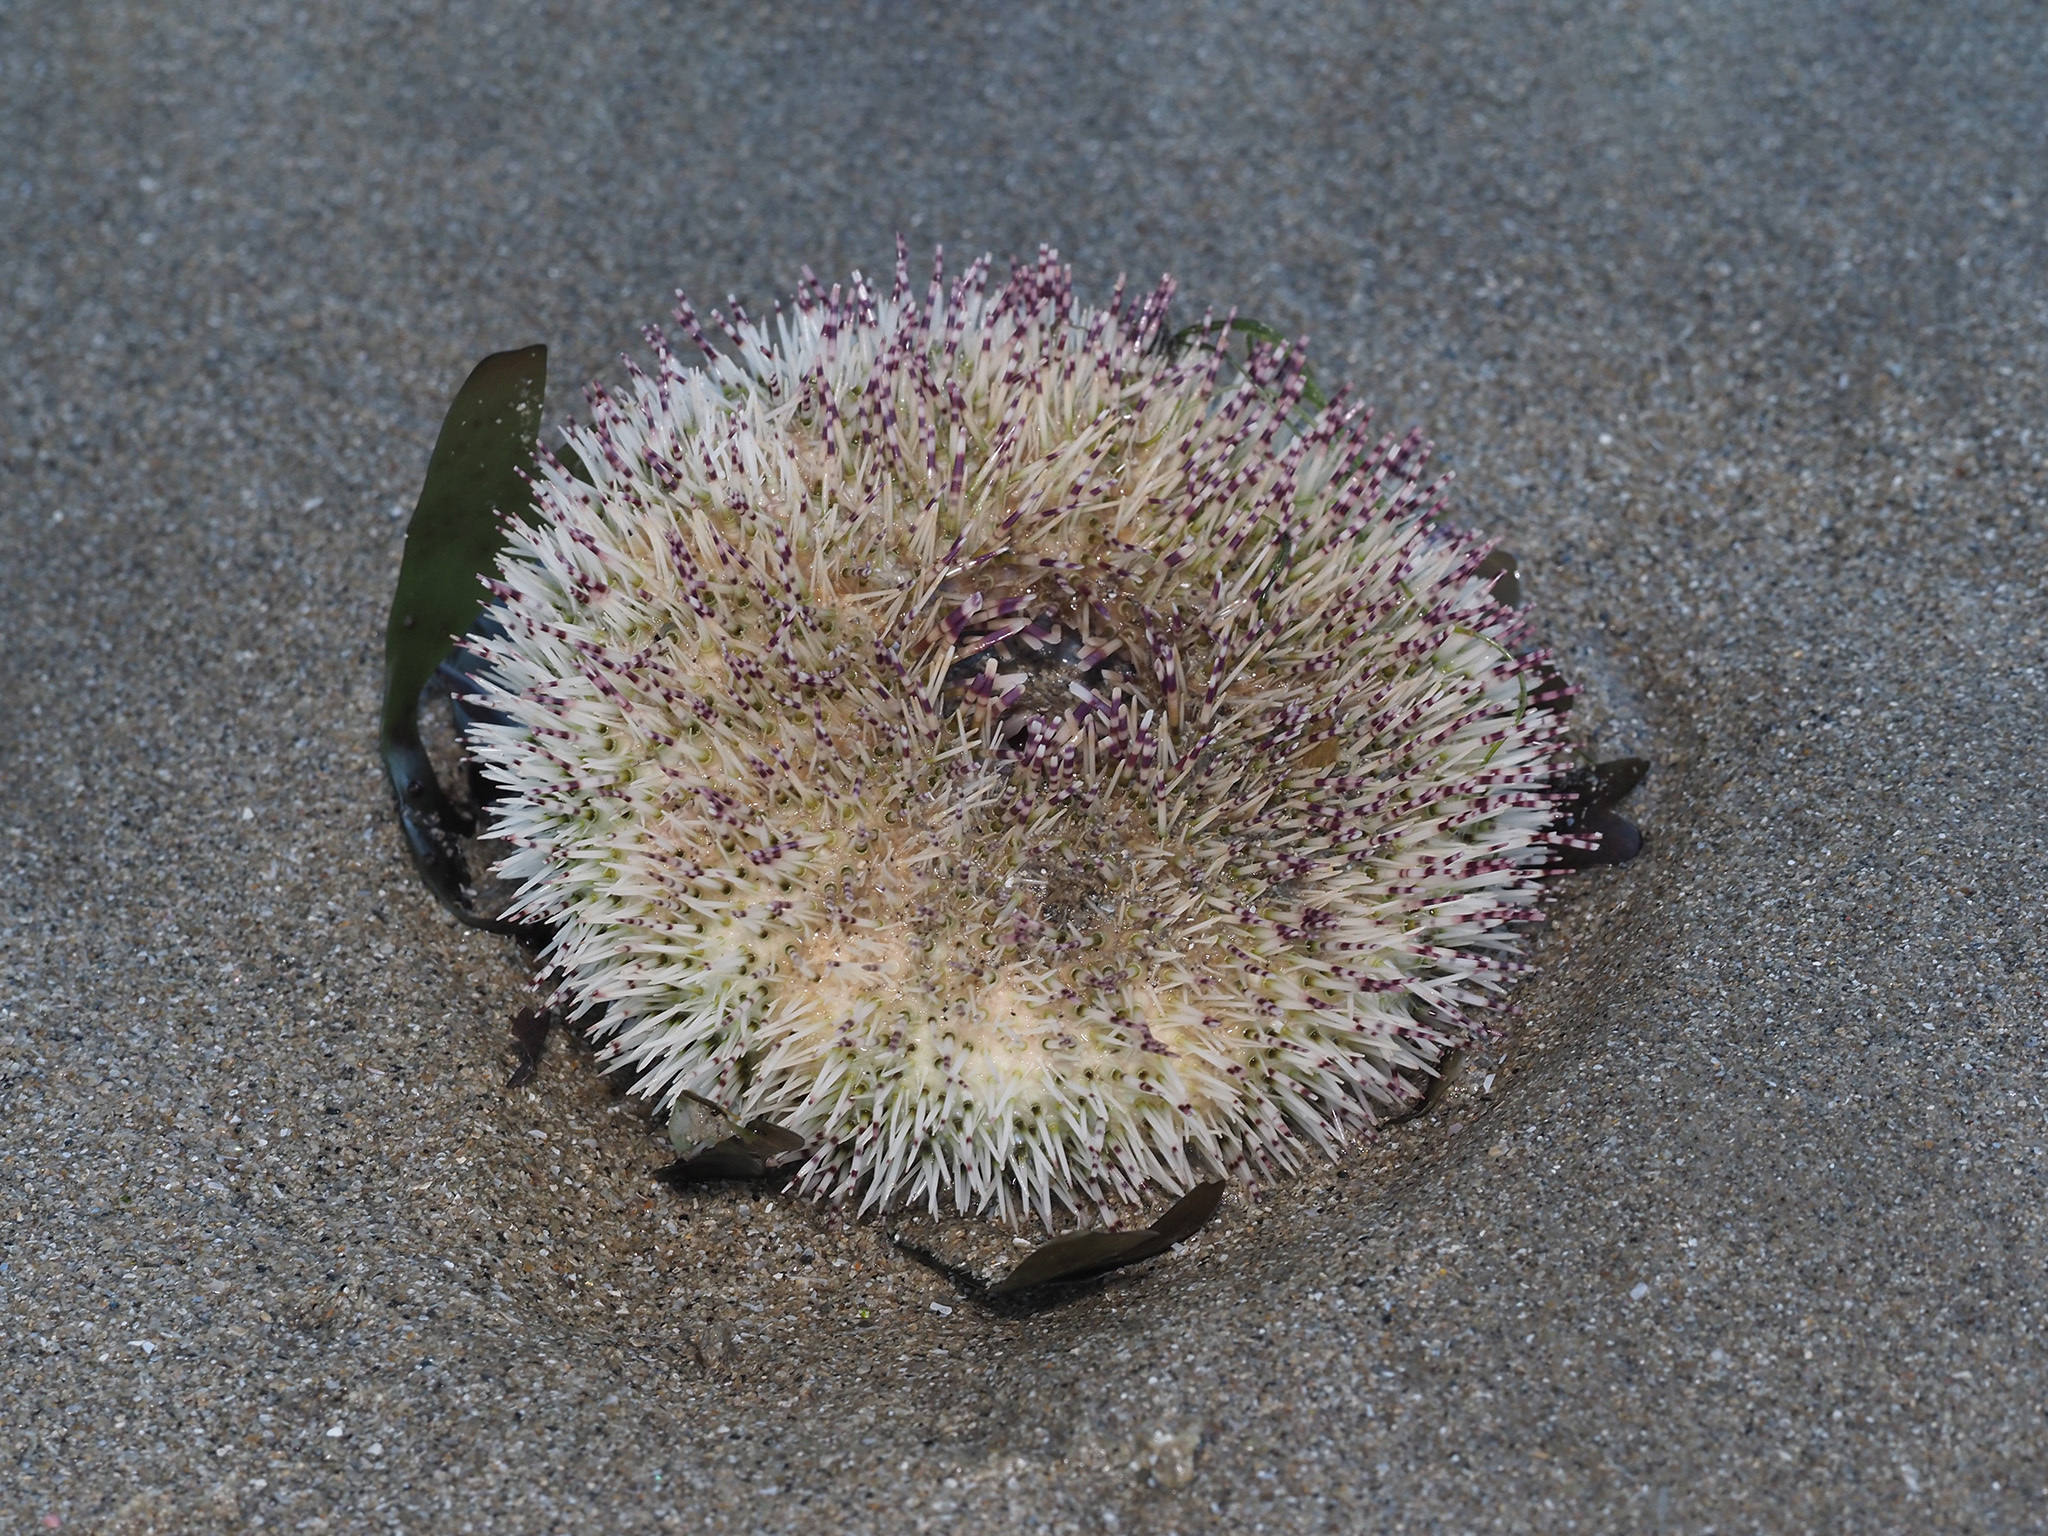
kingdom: Animalia
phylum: Echinodermata
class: Echinoidea
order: Camarodonta
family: Temnopleuridae
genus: Salmacis
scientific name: Salmacis sphaeroides
